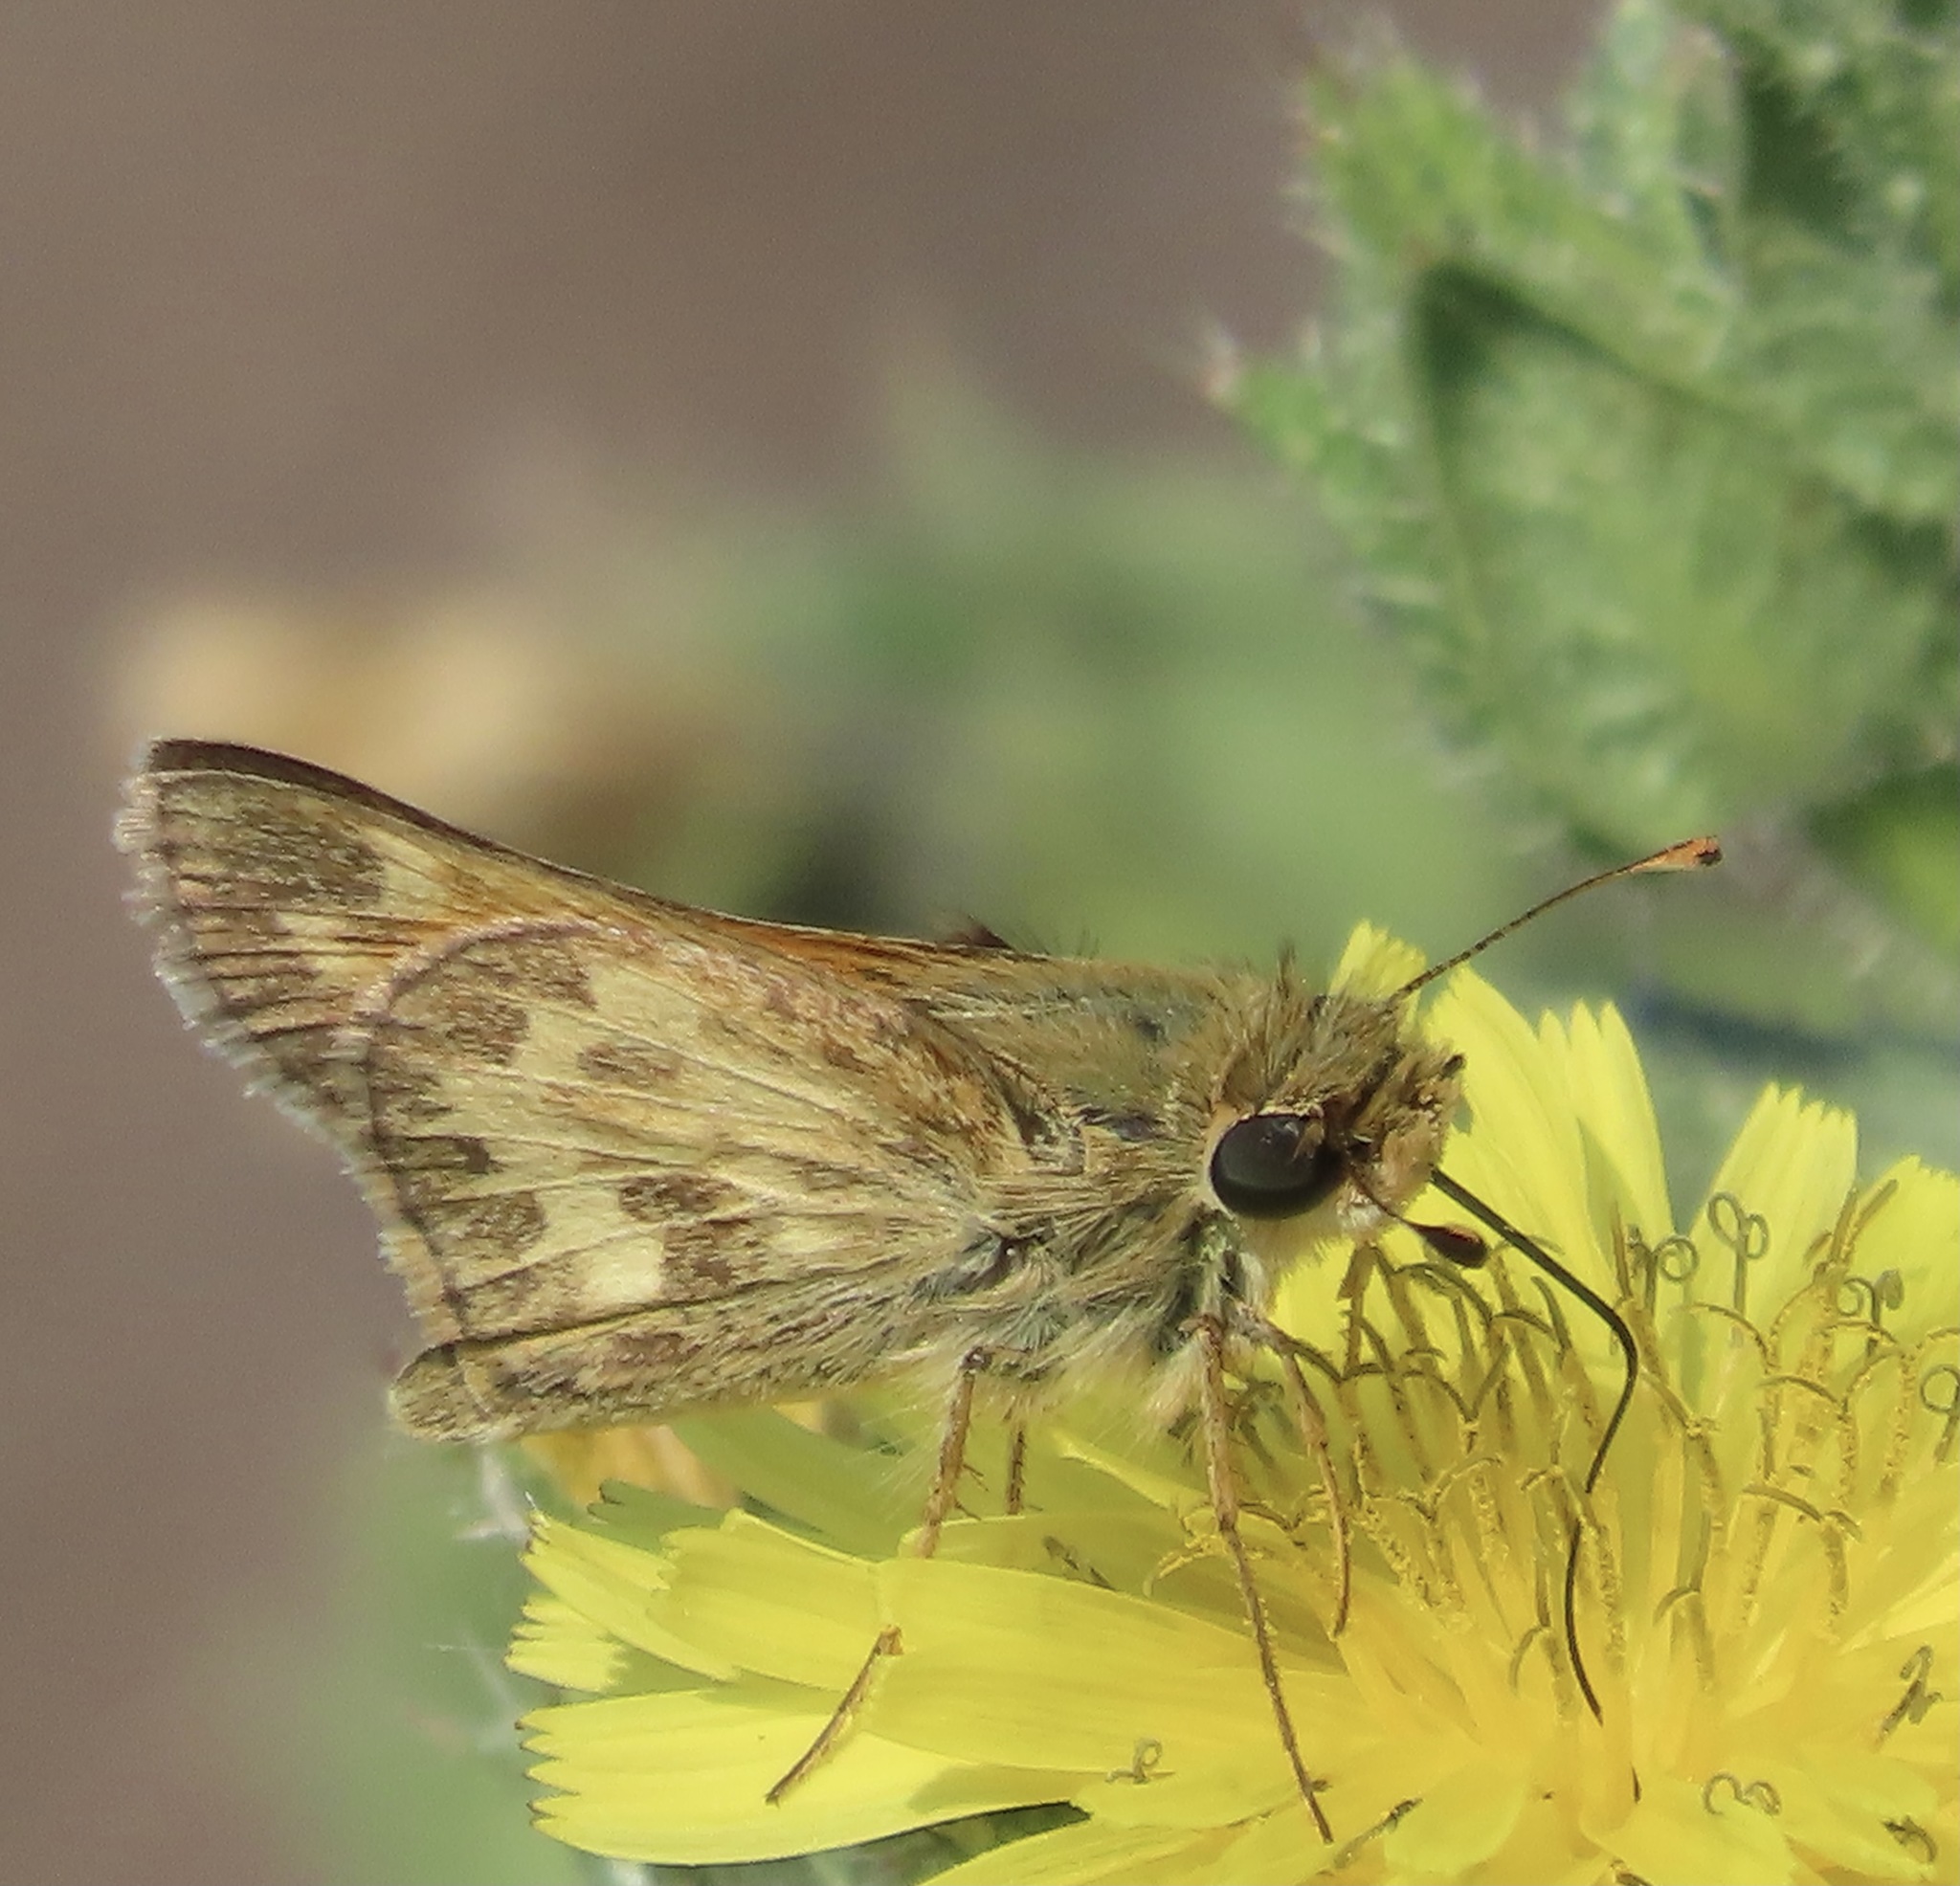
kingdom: Animalia
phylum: Arthropoda
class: Insecta
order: Lepidoptera
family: Hesperiidae
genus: Polites
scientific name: Polites sabuleti
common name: Sandhill skipper
